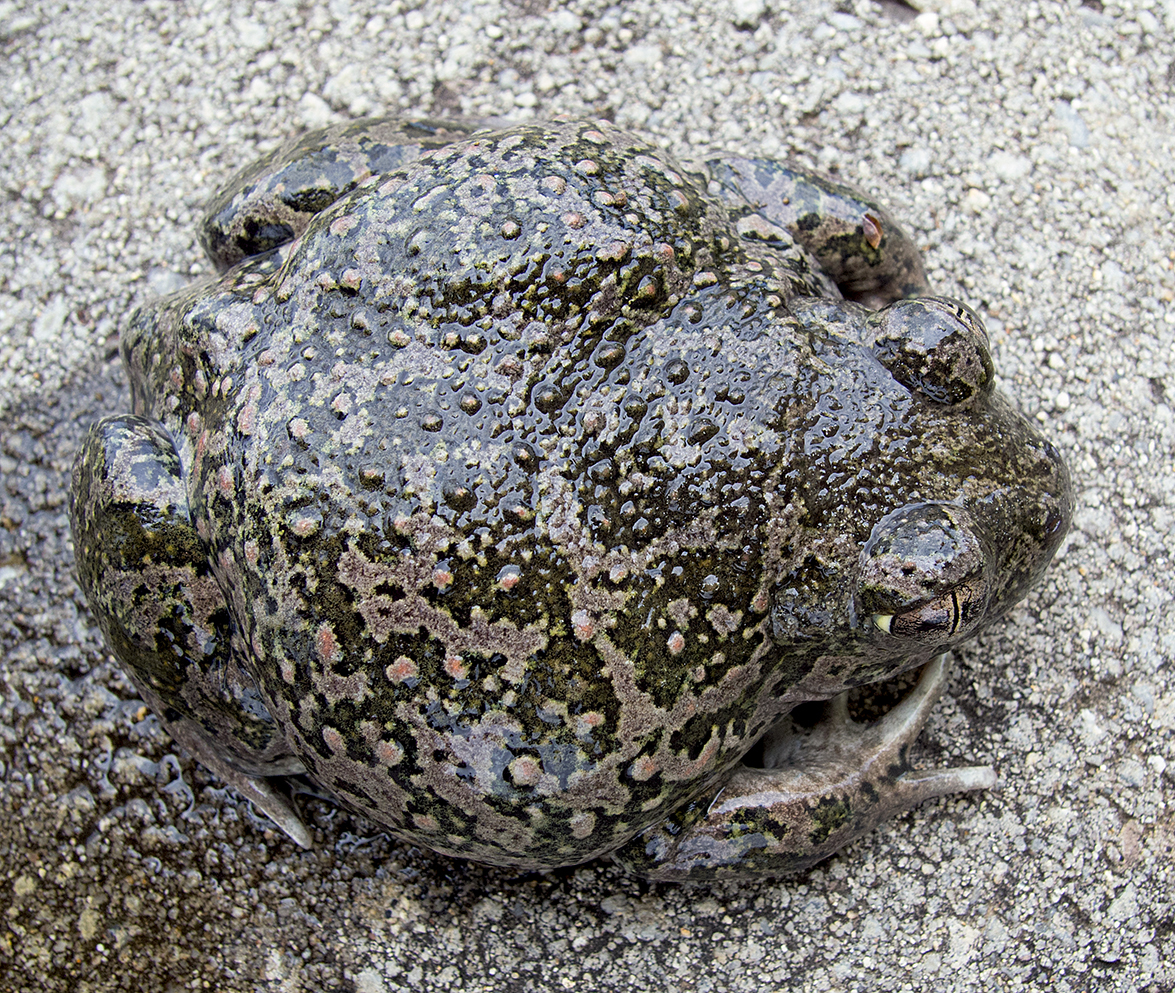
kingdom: Animalia
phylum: Chordata
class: Amphibia
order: Anura
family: Pelobatidae
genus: Pelobates
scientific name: Pelobates balcanicus
